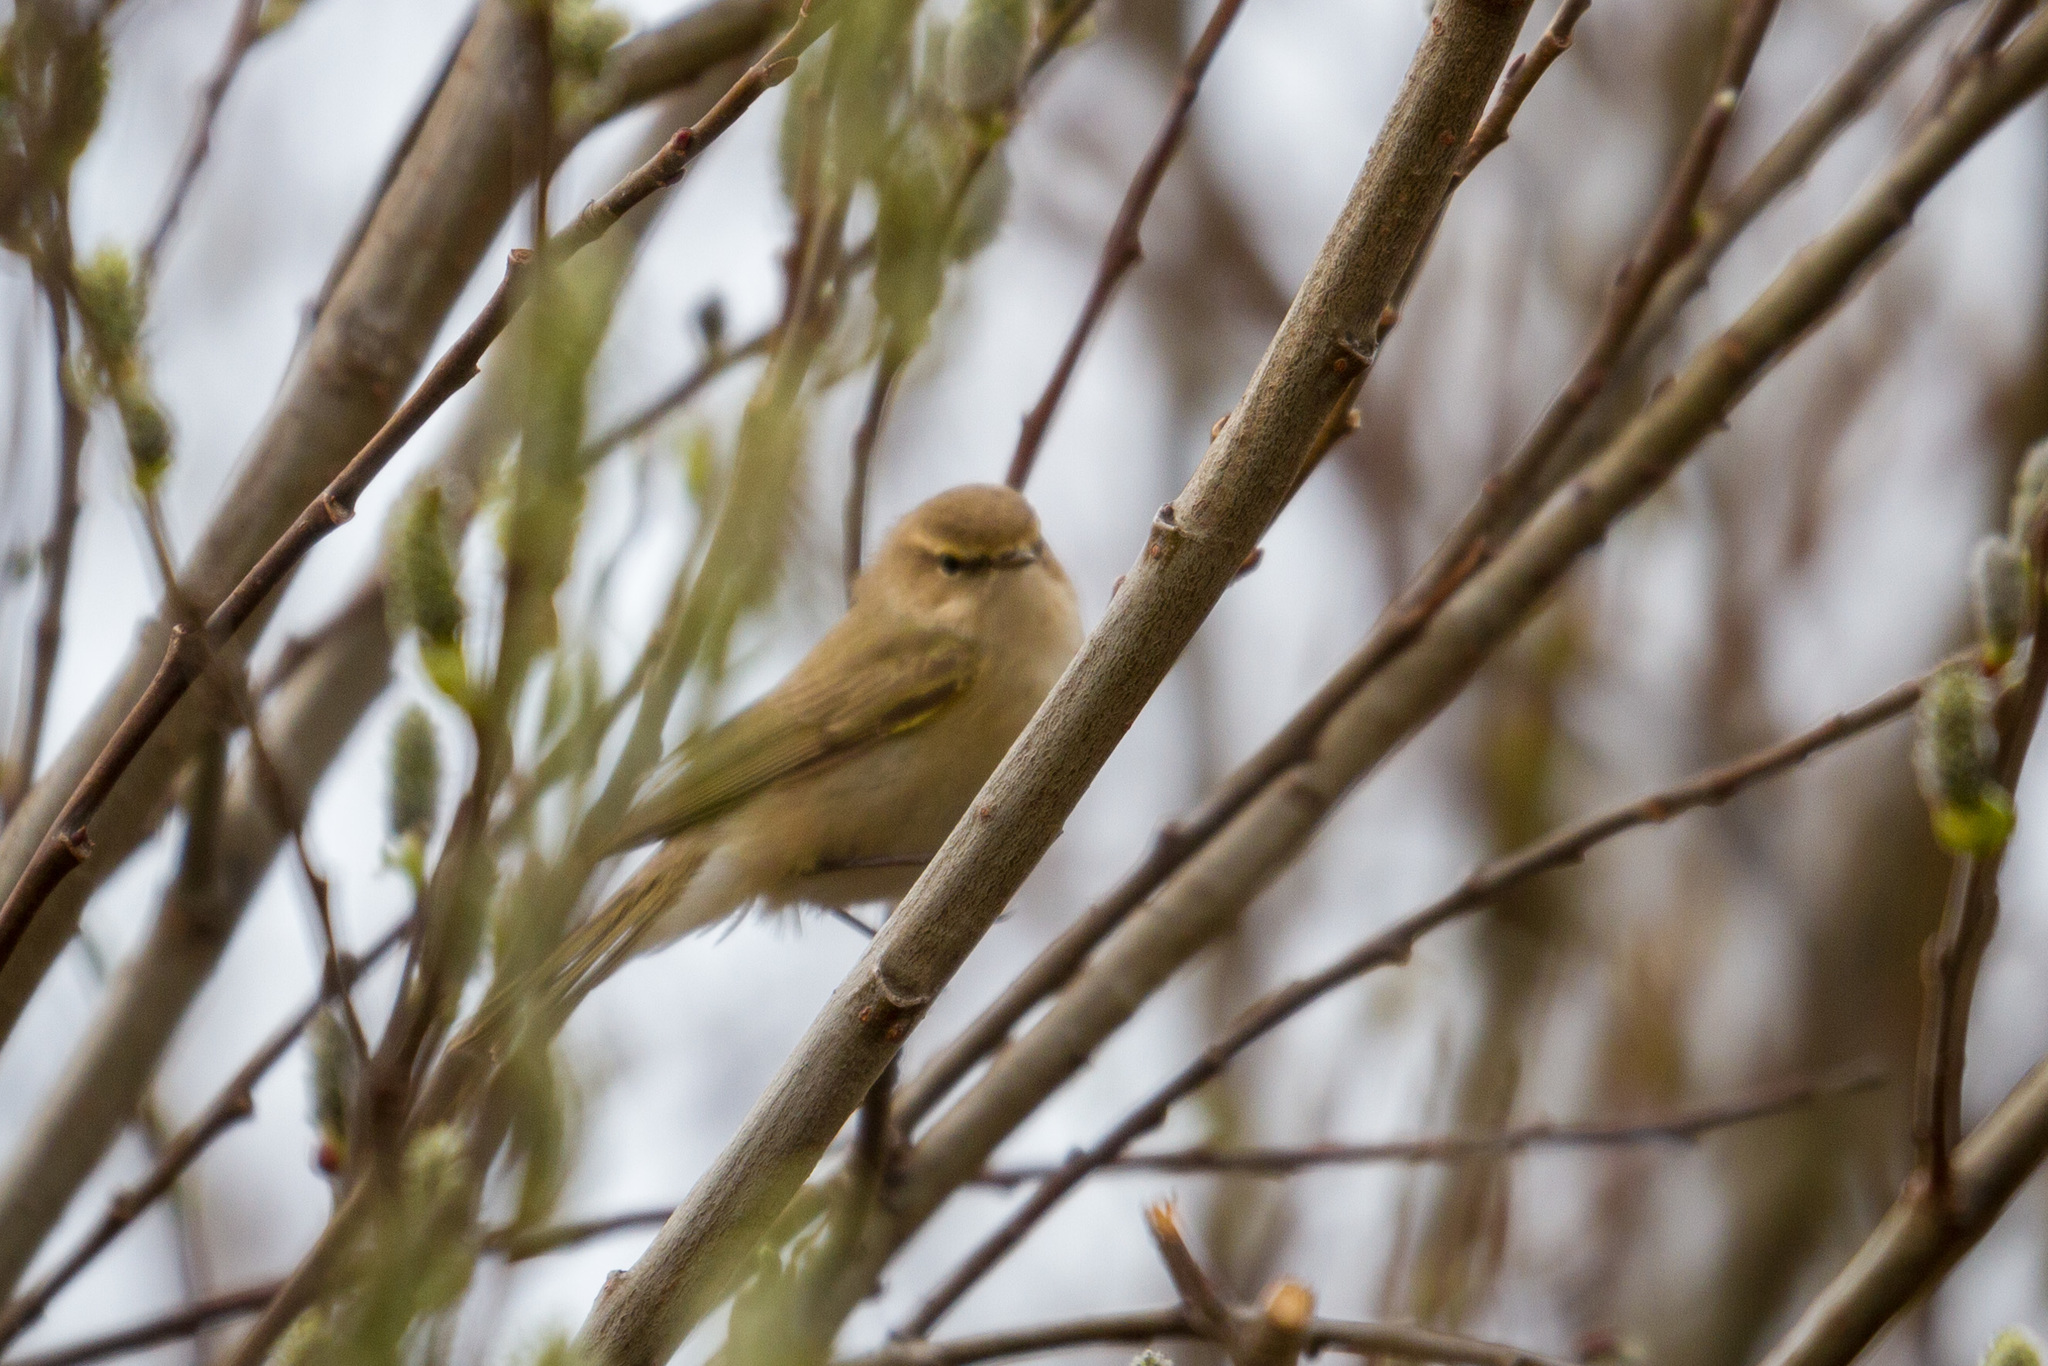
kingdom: Animalia
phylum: Chordata
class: Aves
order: Passeriformes
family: Phylloscopidae
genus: Phylloscopus
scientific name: Phylloscopus collybita
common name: Common chiffchaff
